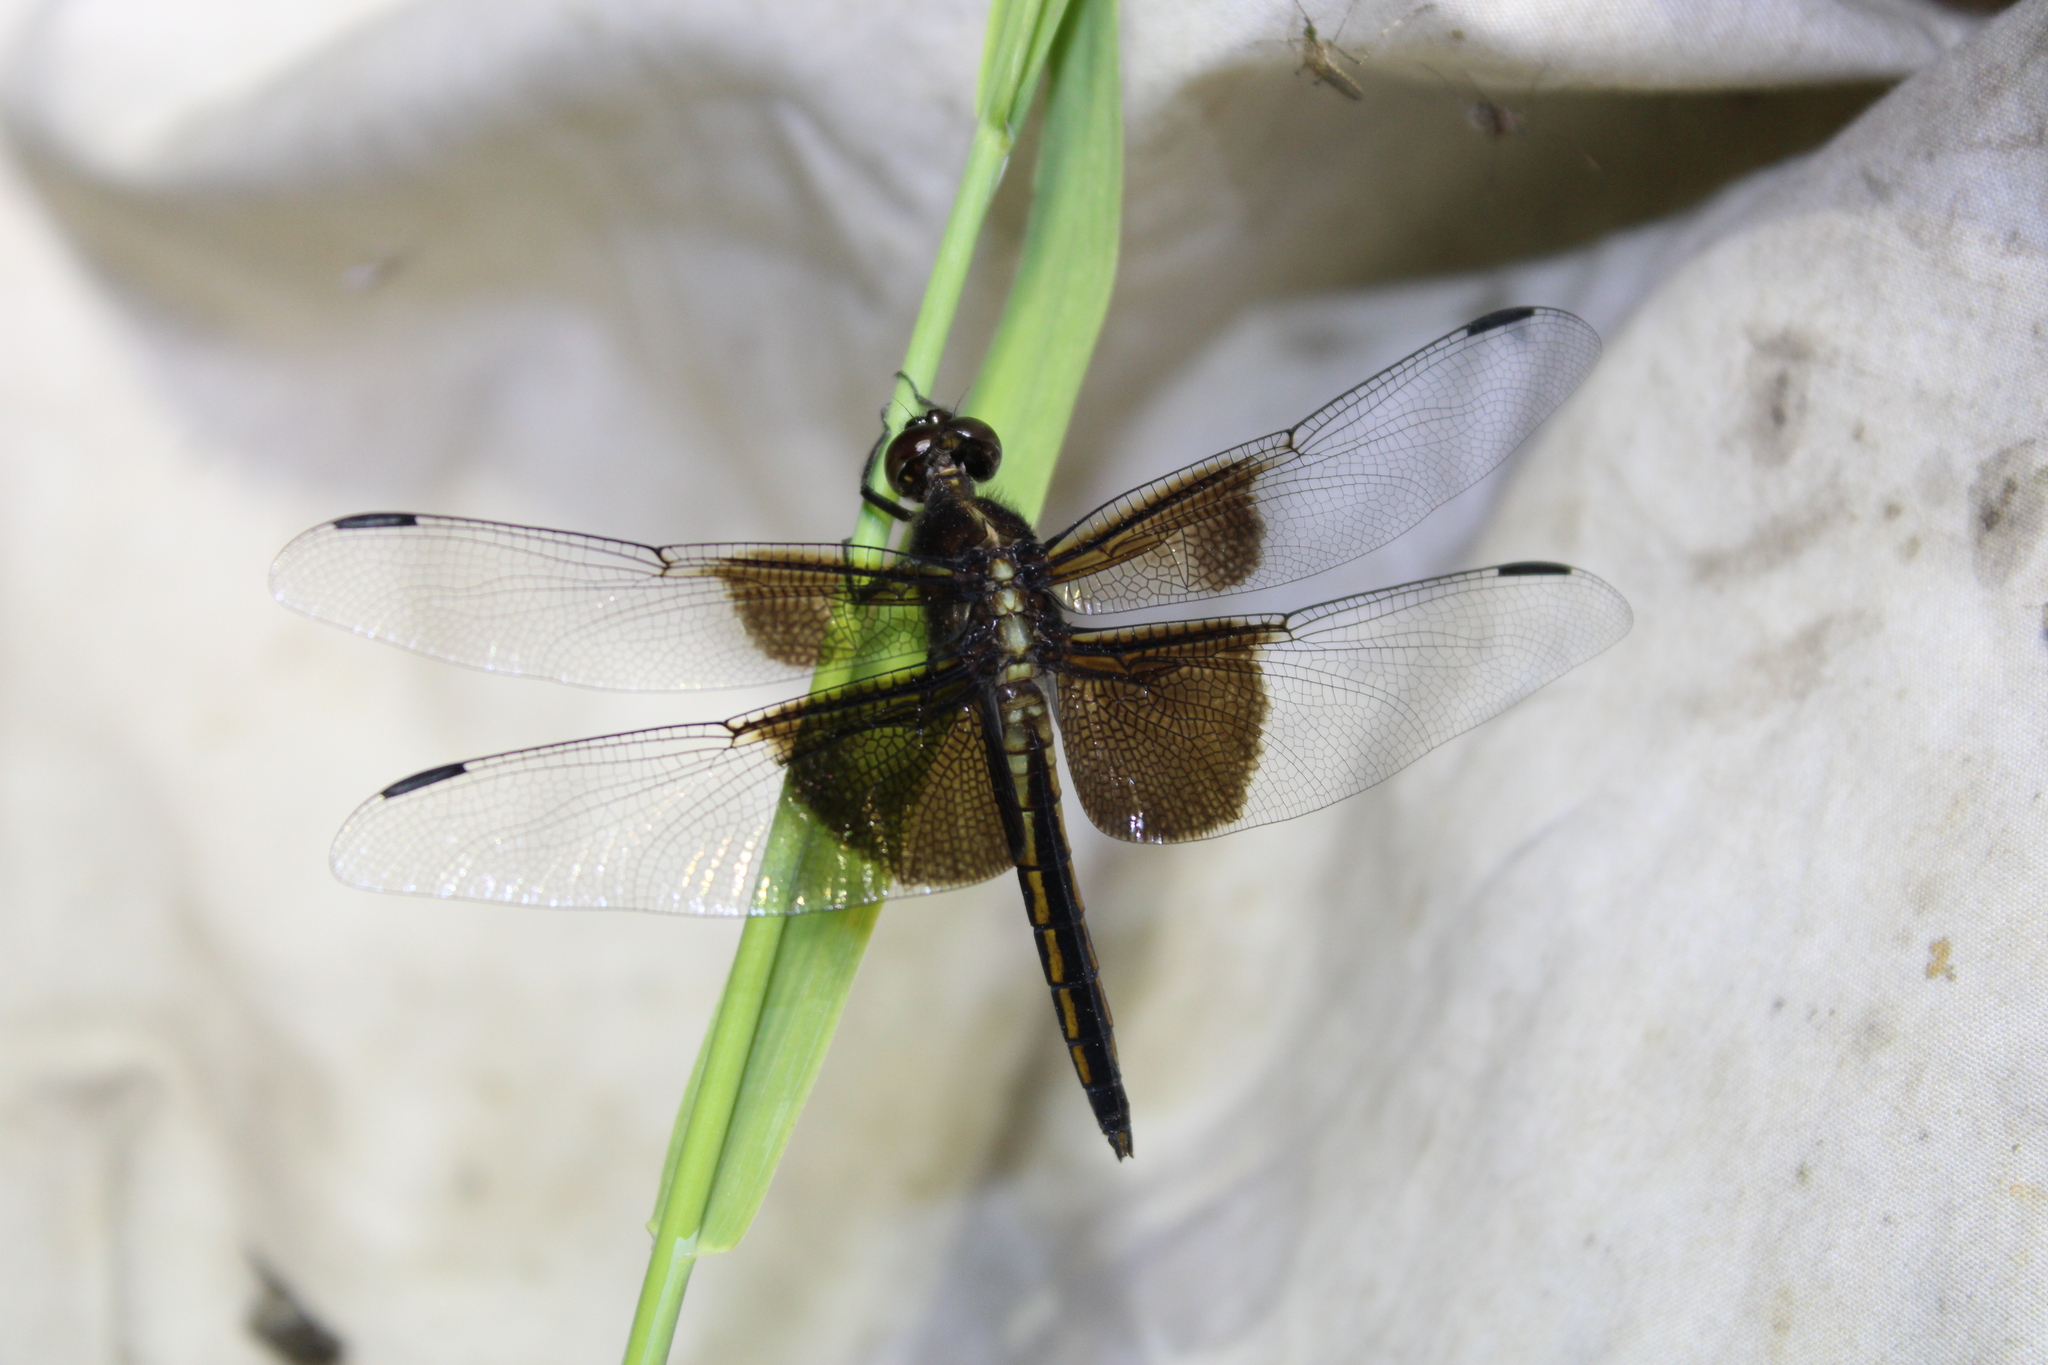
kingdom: Animalia
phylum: Arthropoda
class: Insecta
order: Odonata
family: Libellulidae
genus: Libellula
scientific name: Libellula luctuosa
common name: Widow skimmer
